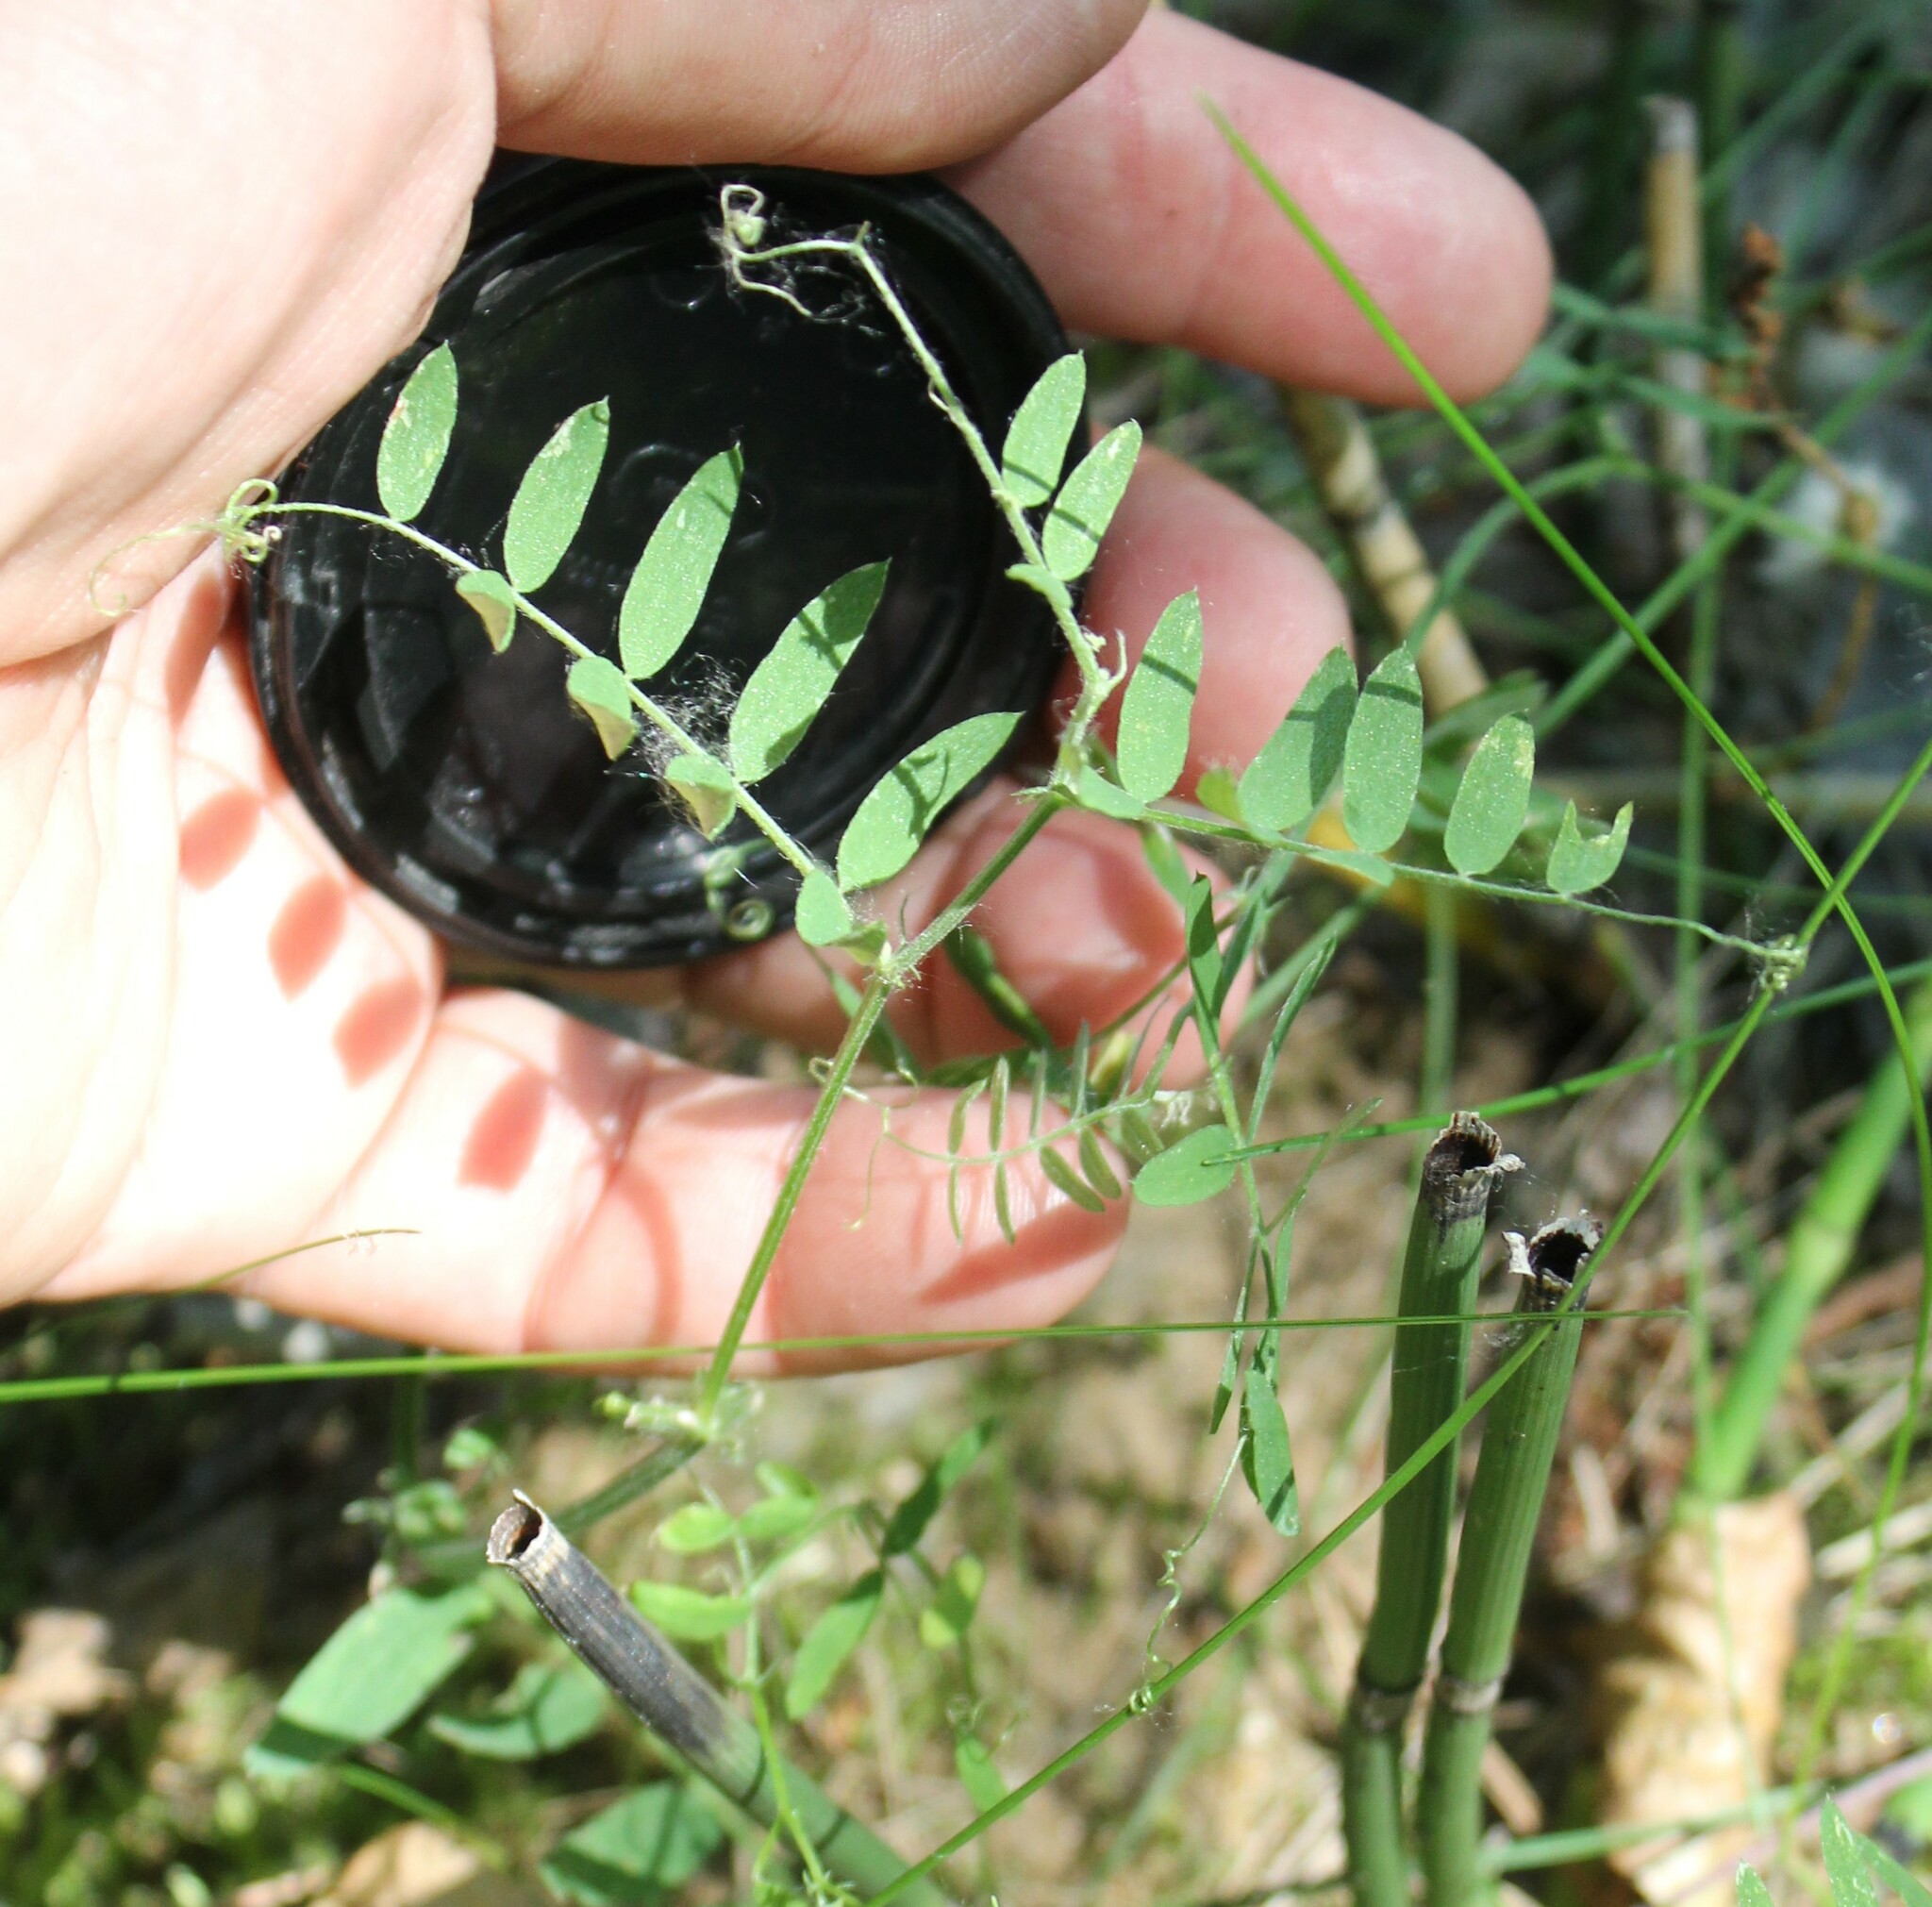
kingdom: Plantae
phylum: Tracheophyta
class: Magnoliopsida
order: Fabales
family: Fabaceae
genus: Vicia
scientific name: Vicia cracca
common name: Bird vetch
